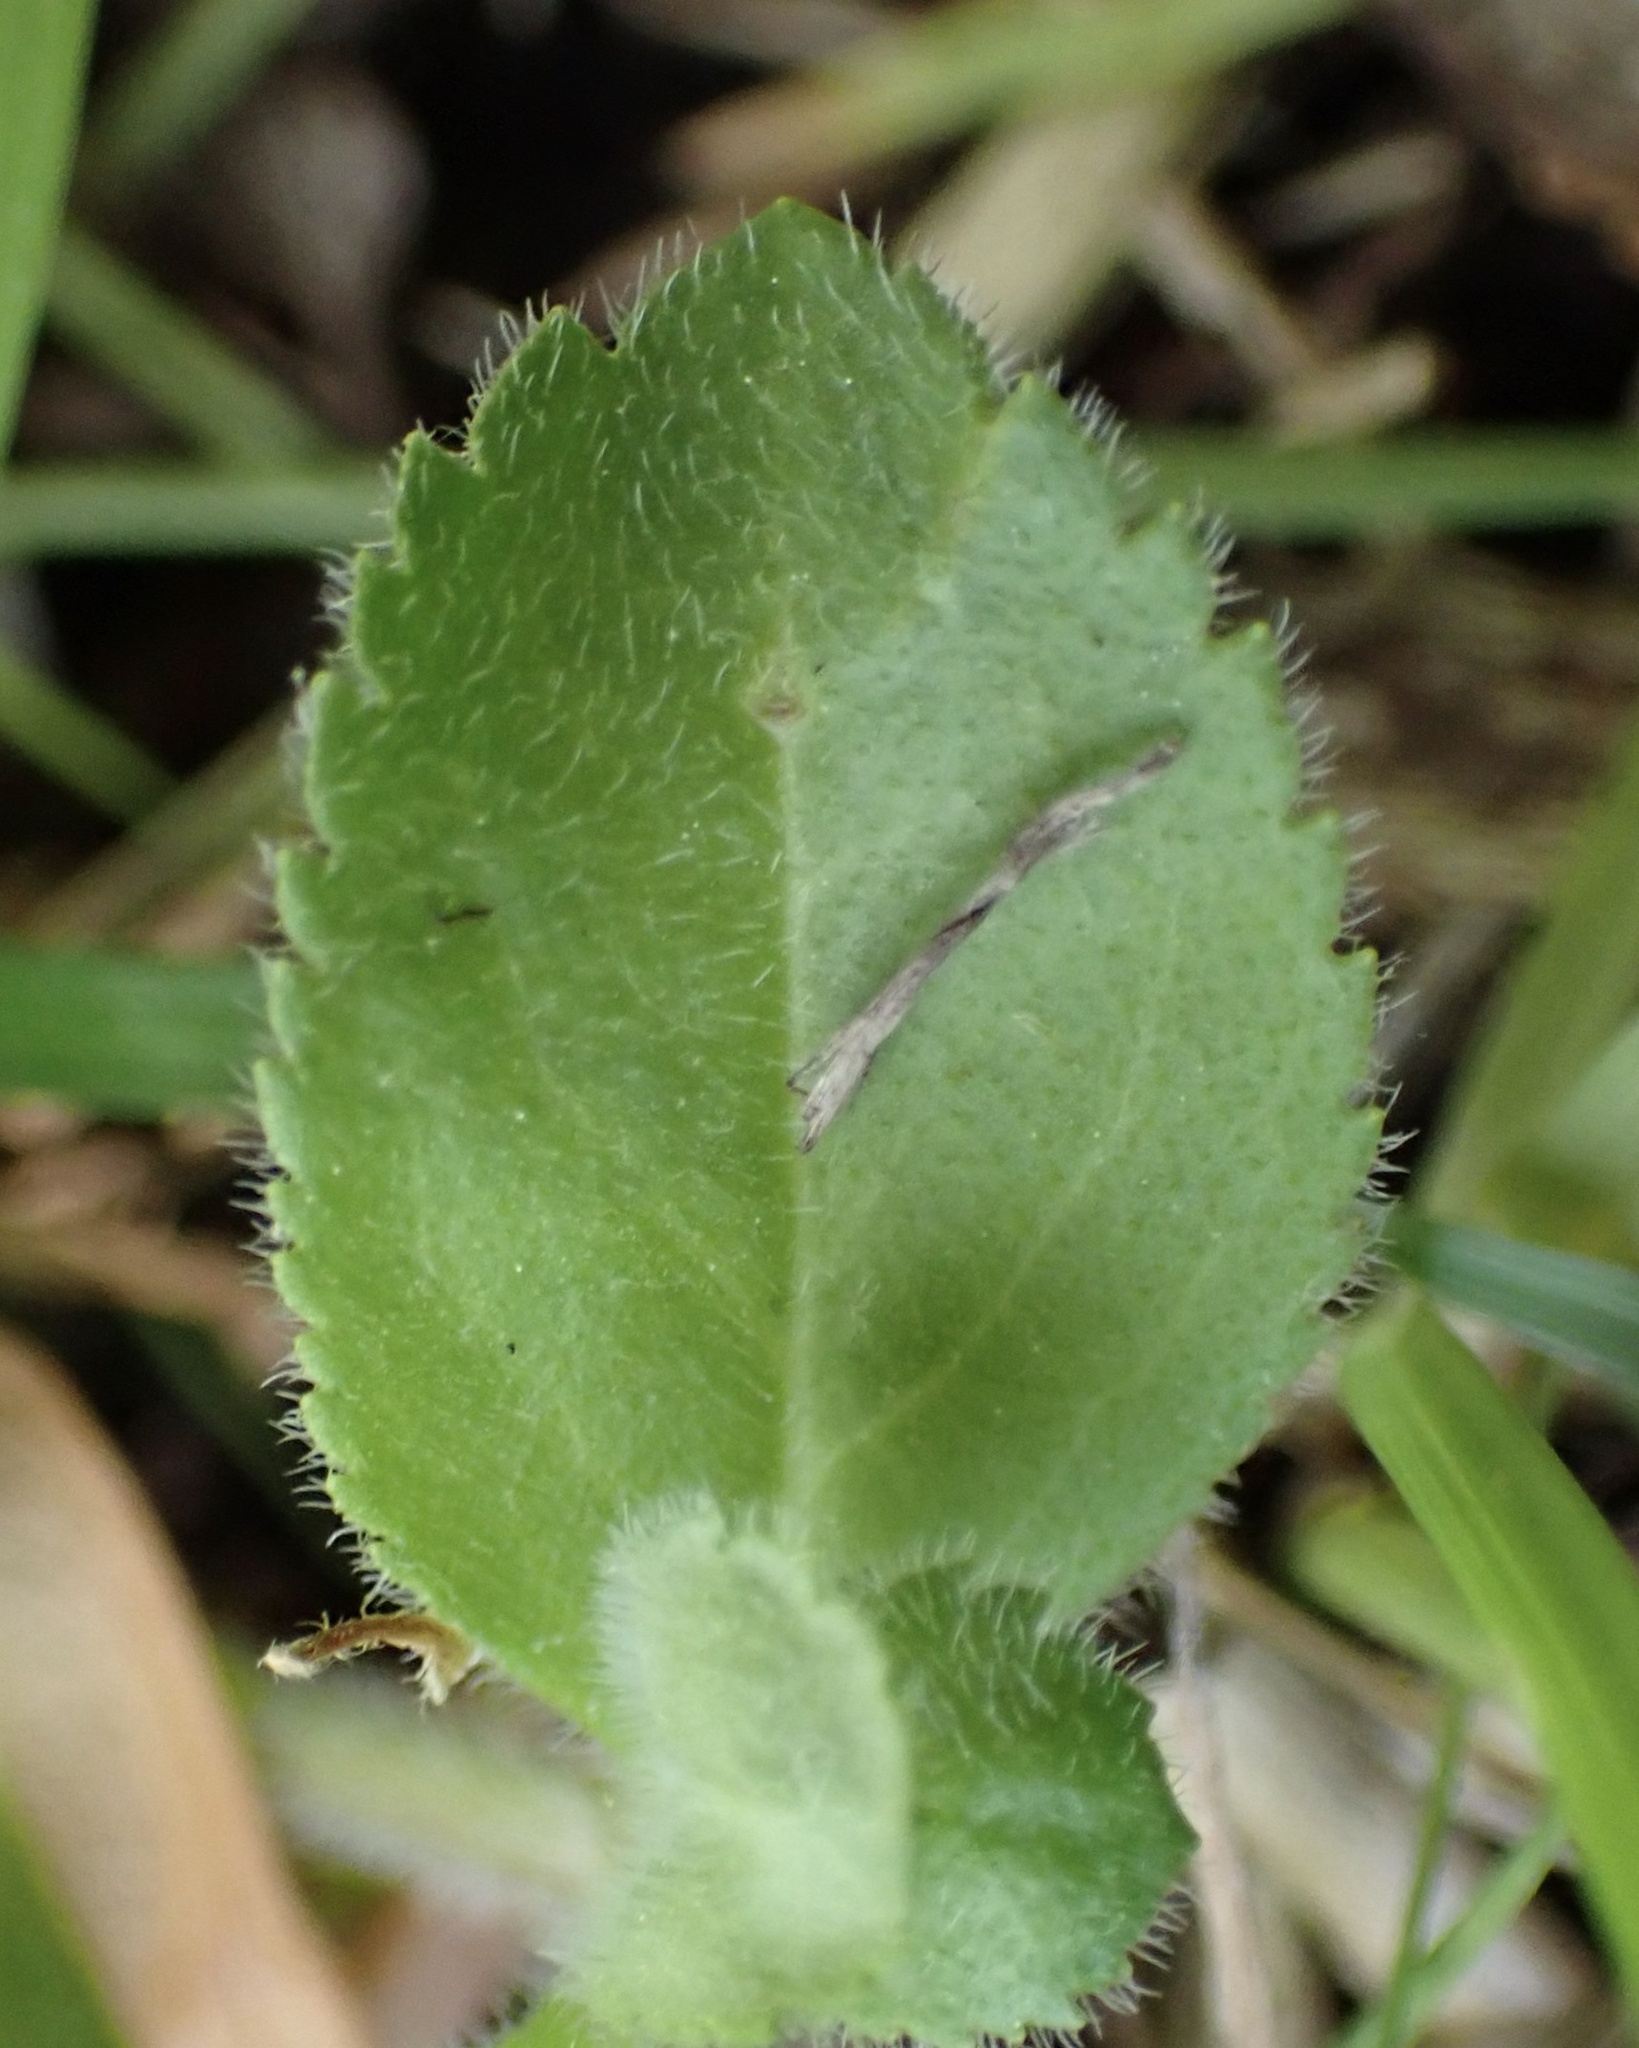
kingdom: Plantae
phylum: Tracheophyta
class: Magnoliopsida
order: Lamiales
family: Plantaginaceae
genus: Veronica
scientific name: Veronica officinalis
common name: Common speedwell
